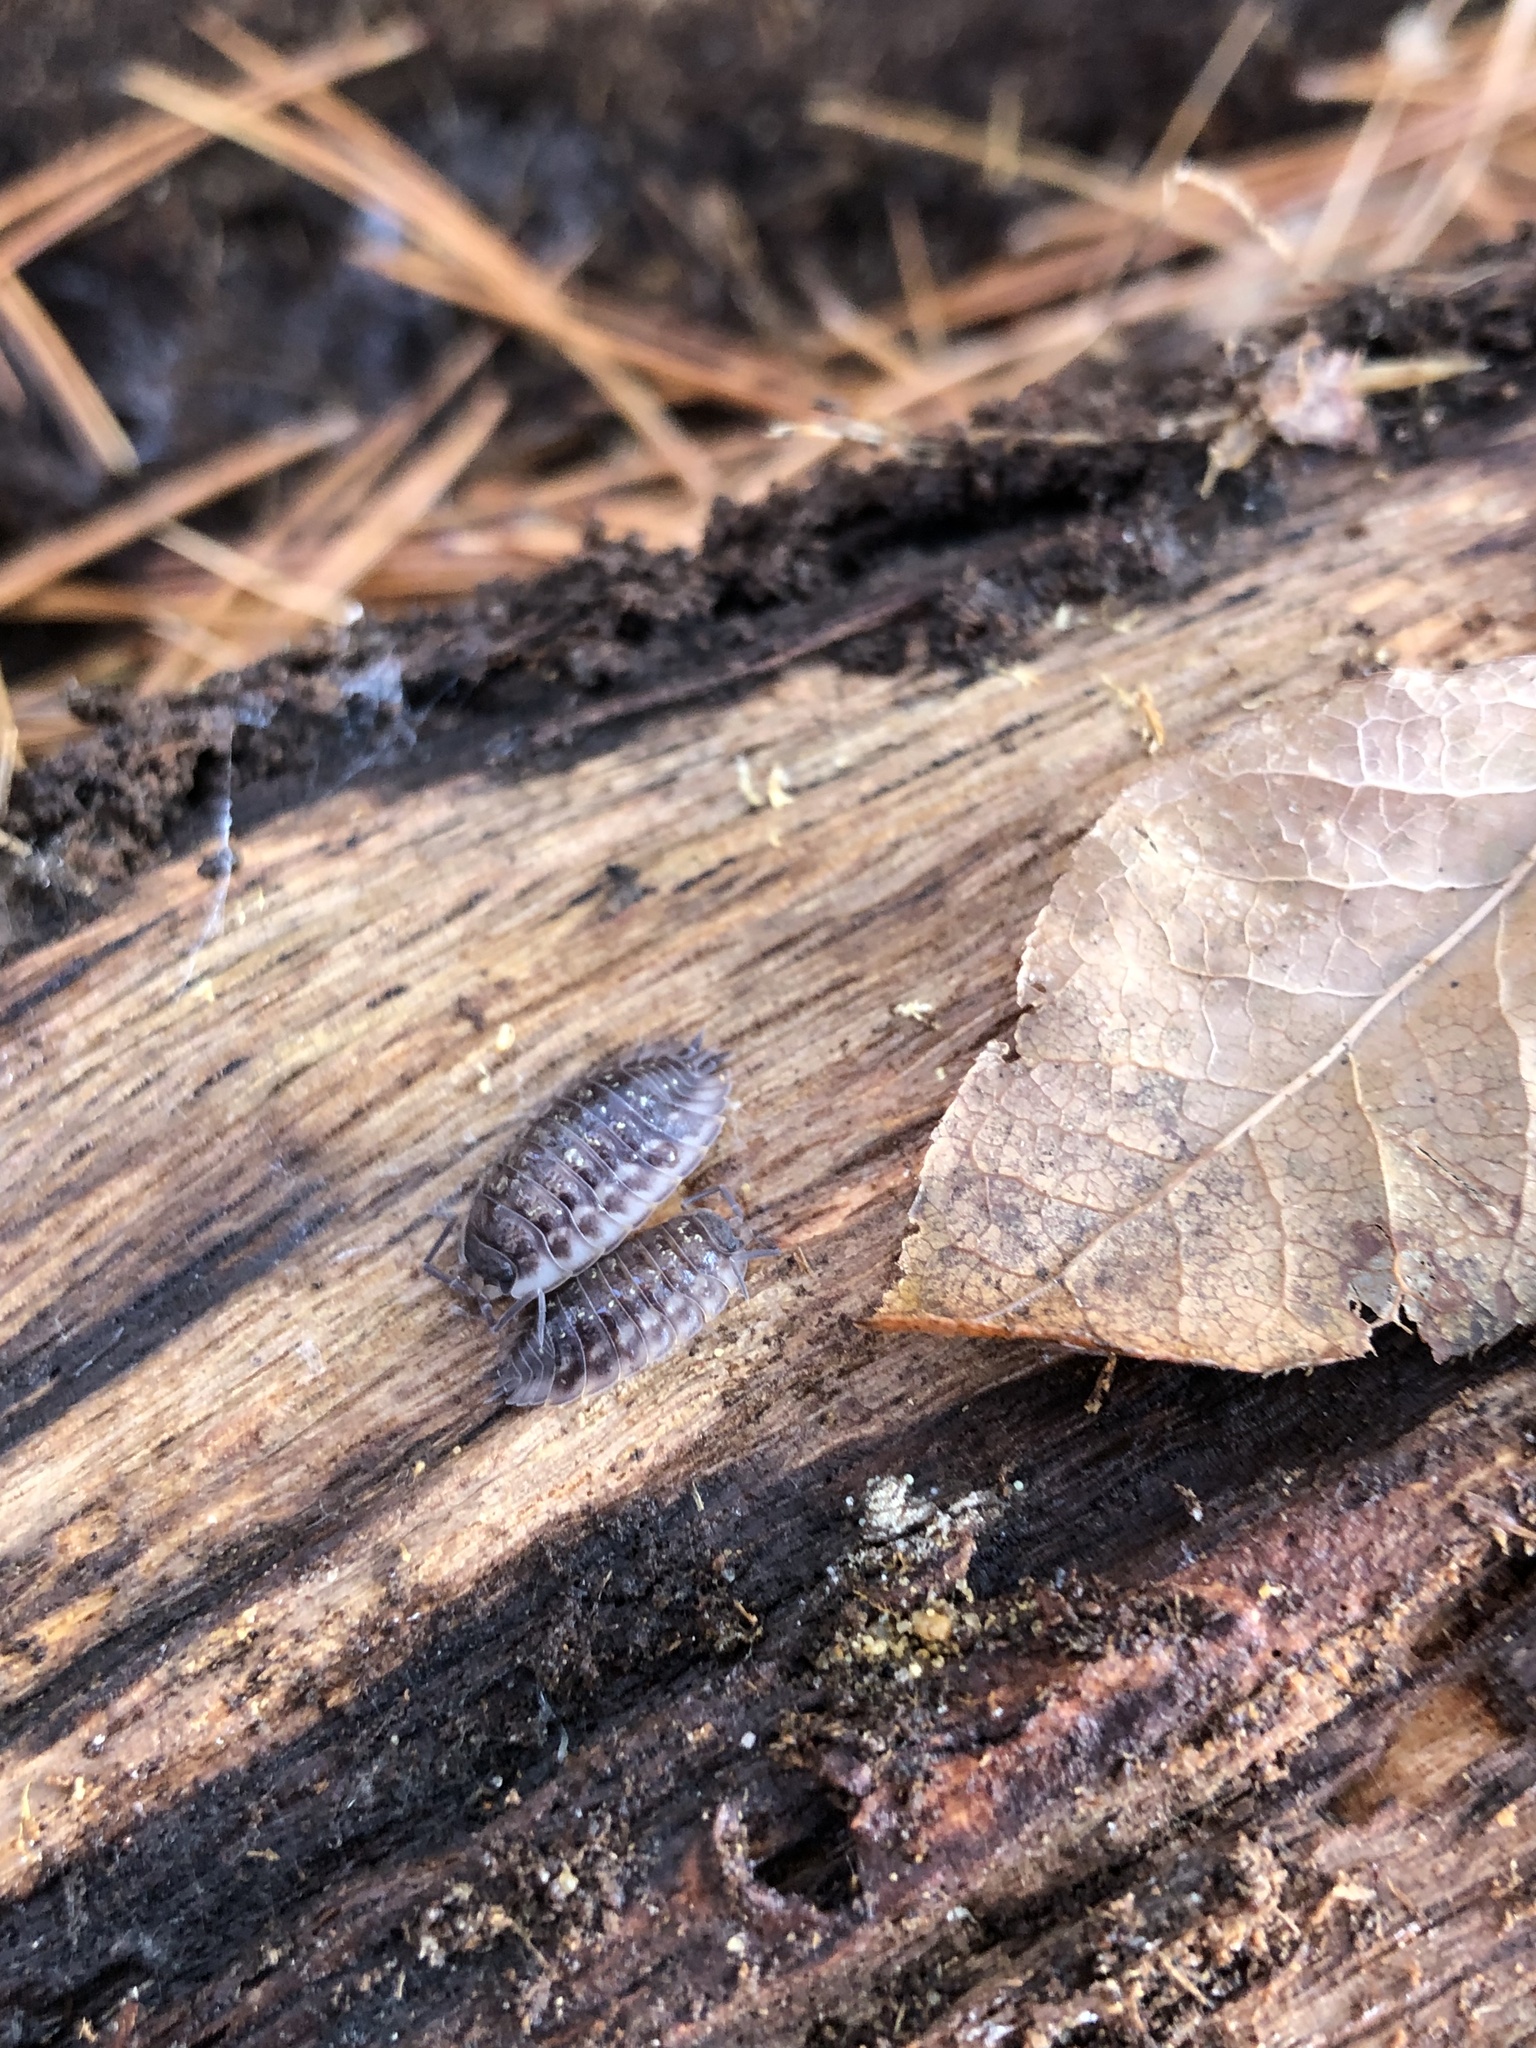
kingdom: Animalia
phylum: Arthropoda
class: Malacostraca
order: Isopoda
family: Oniscidae
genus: Oniscus
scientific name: Oniscus asellus
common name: Common shiny woodlouse
